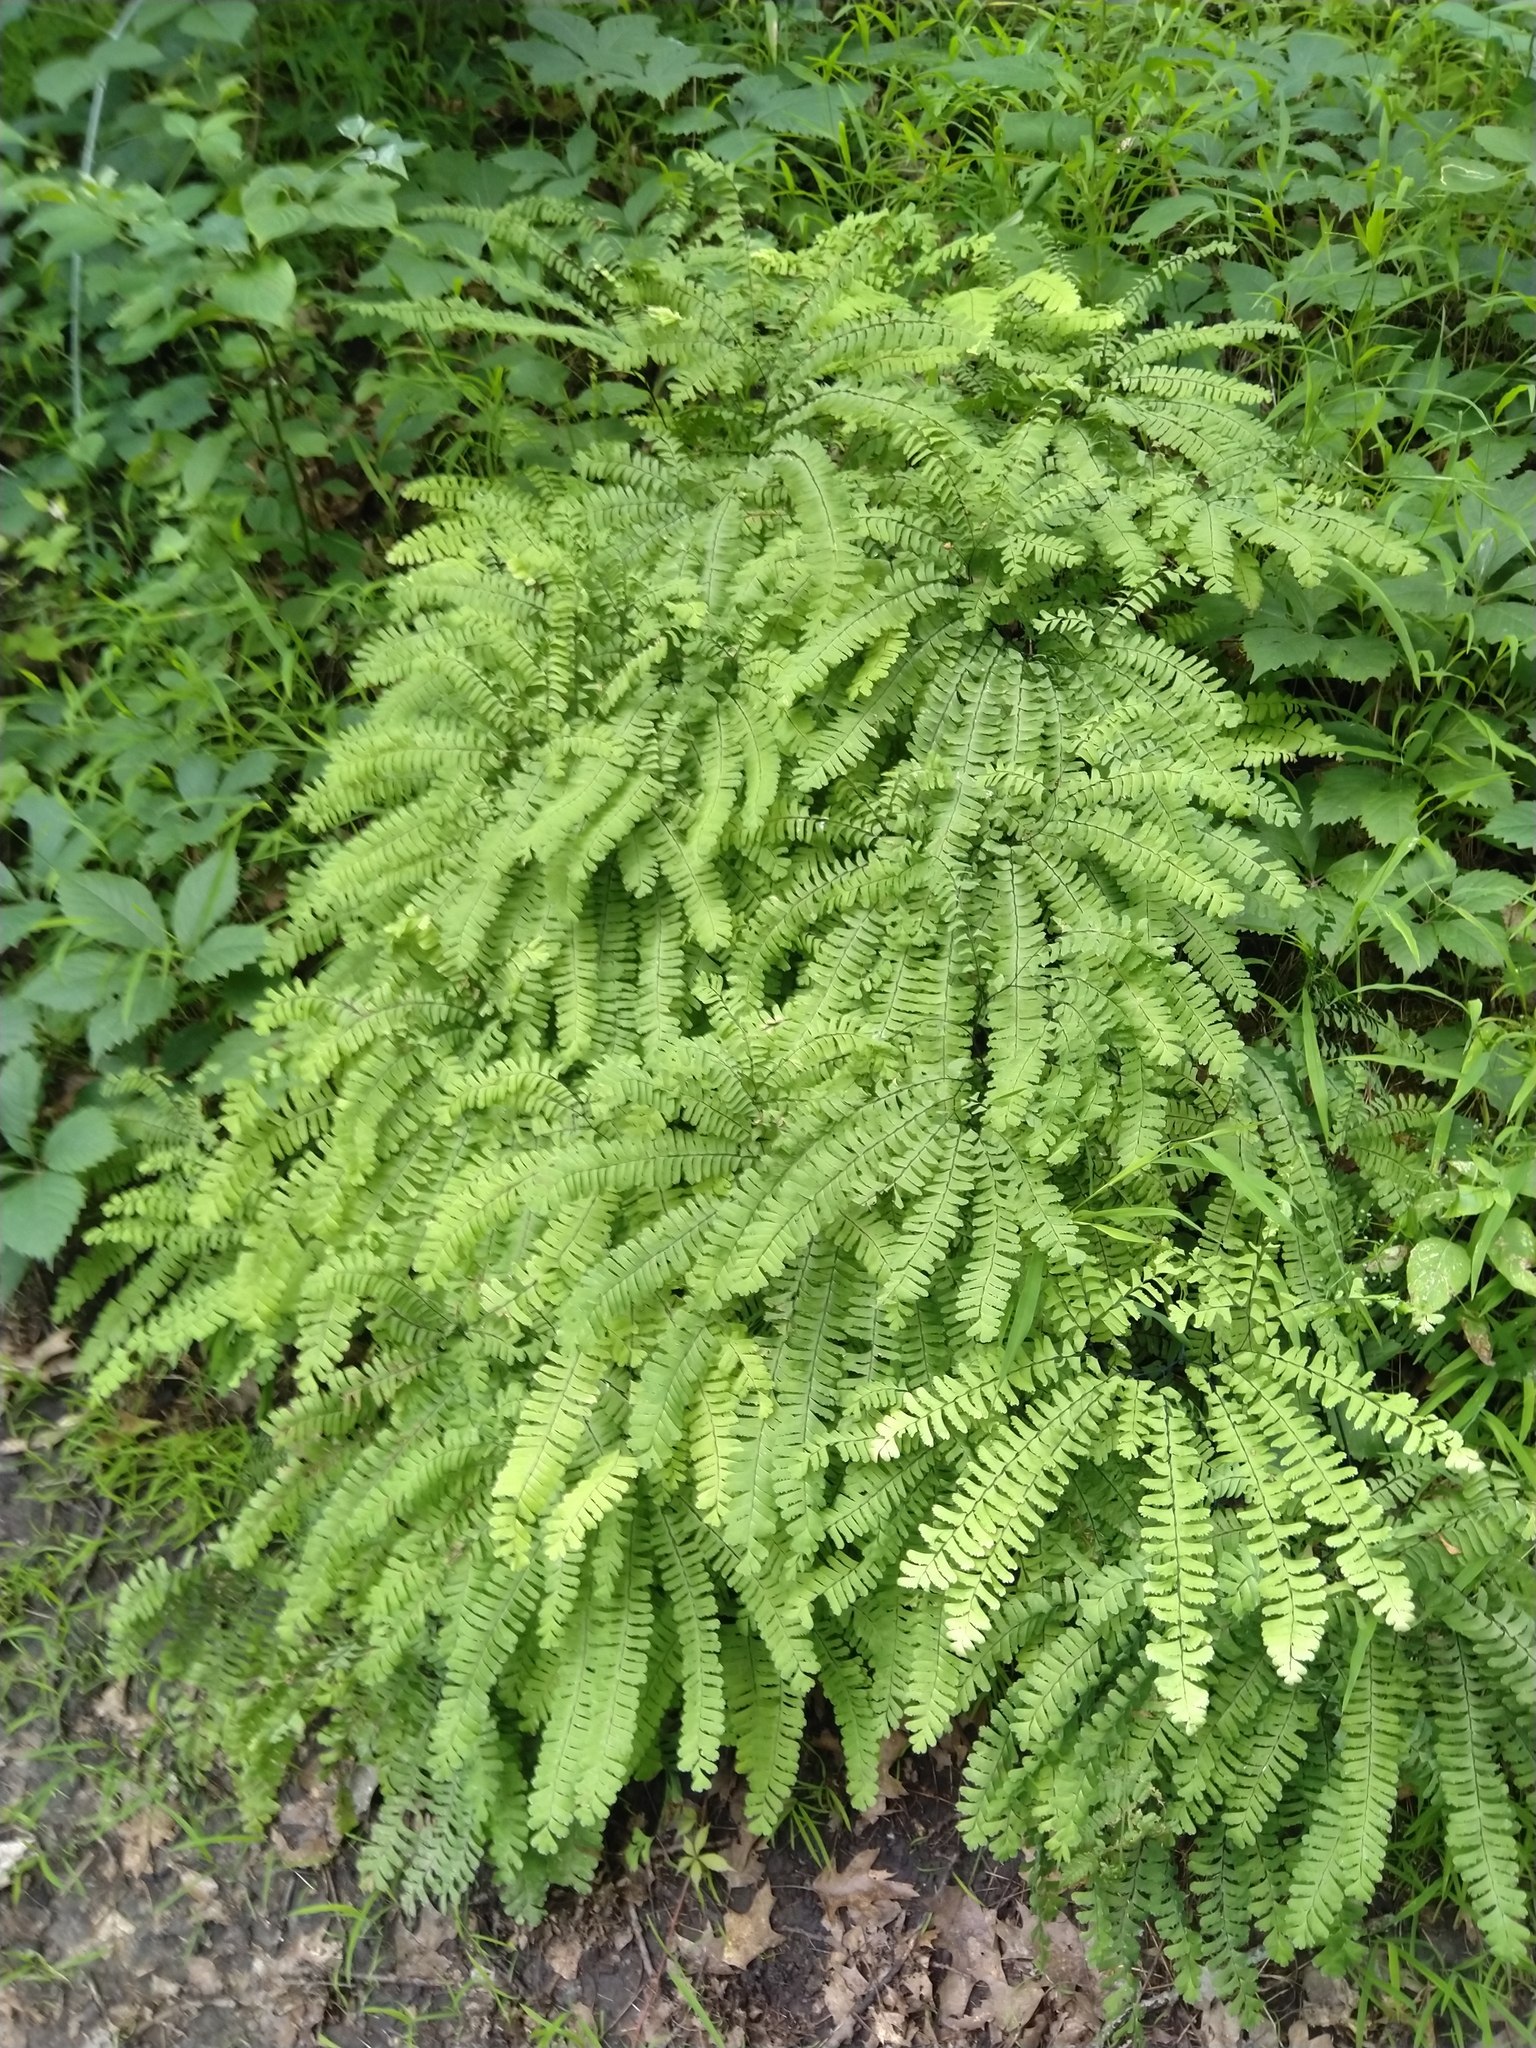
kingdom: Plantae
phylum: Tracheophyta
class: Polypodiopsida
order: Polypodiales
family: Pteridaceae
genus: Adiantum
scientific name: Adiantum pedatum
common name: Five-finger fern
